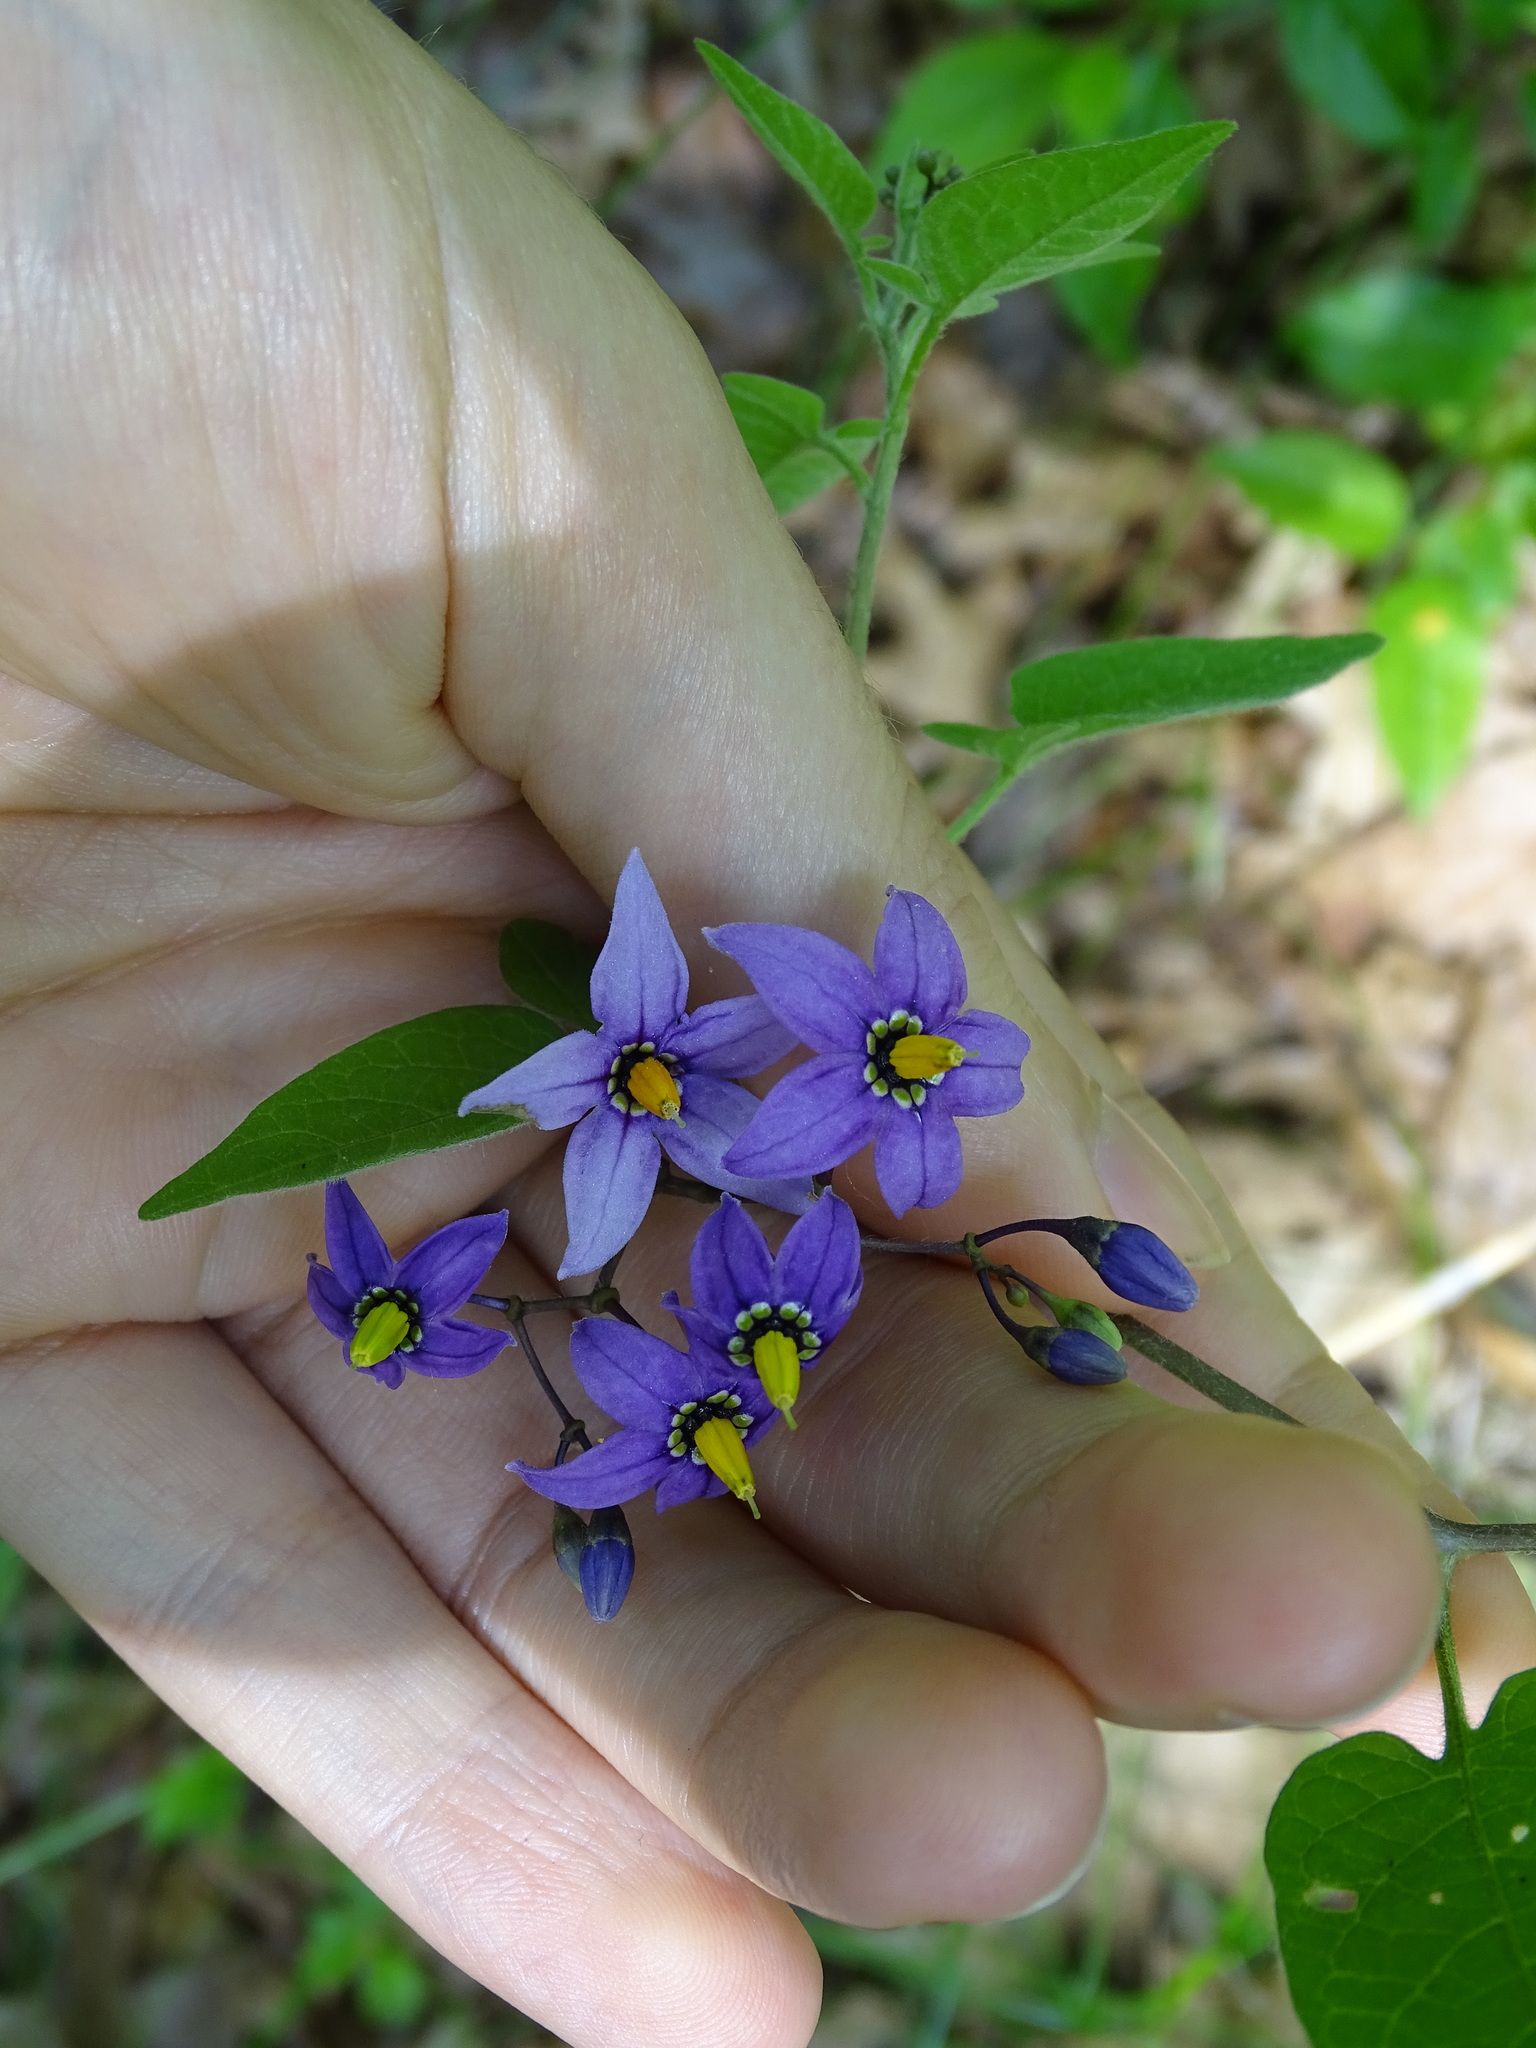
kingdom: Plantae
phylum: Tracheophyta
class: Magnoliopsida
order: Solanales
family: Solanaceae
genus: Solanum
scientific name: Solanum dulcamara
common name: Climbing nightshade
